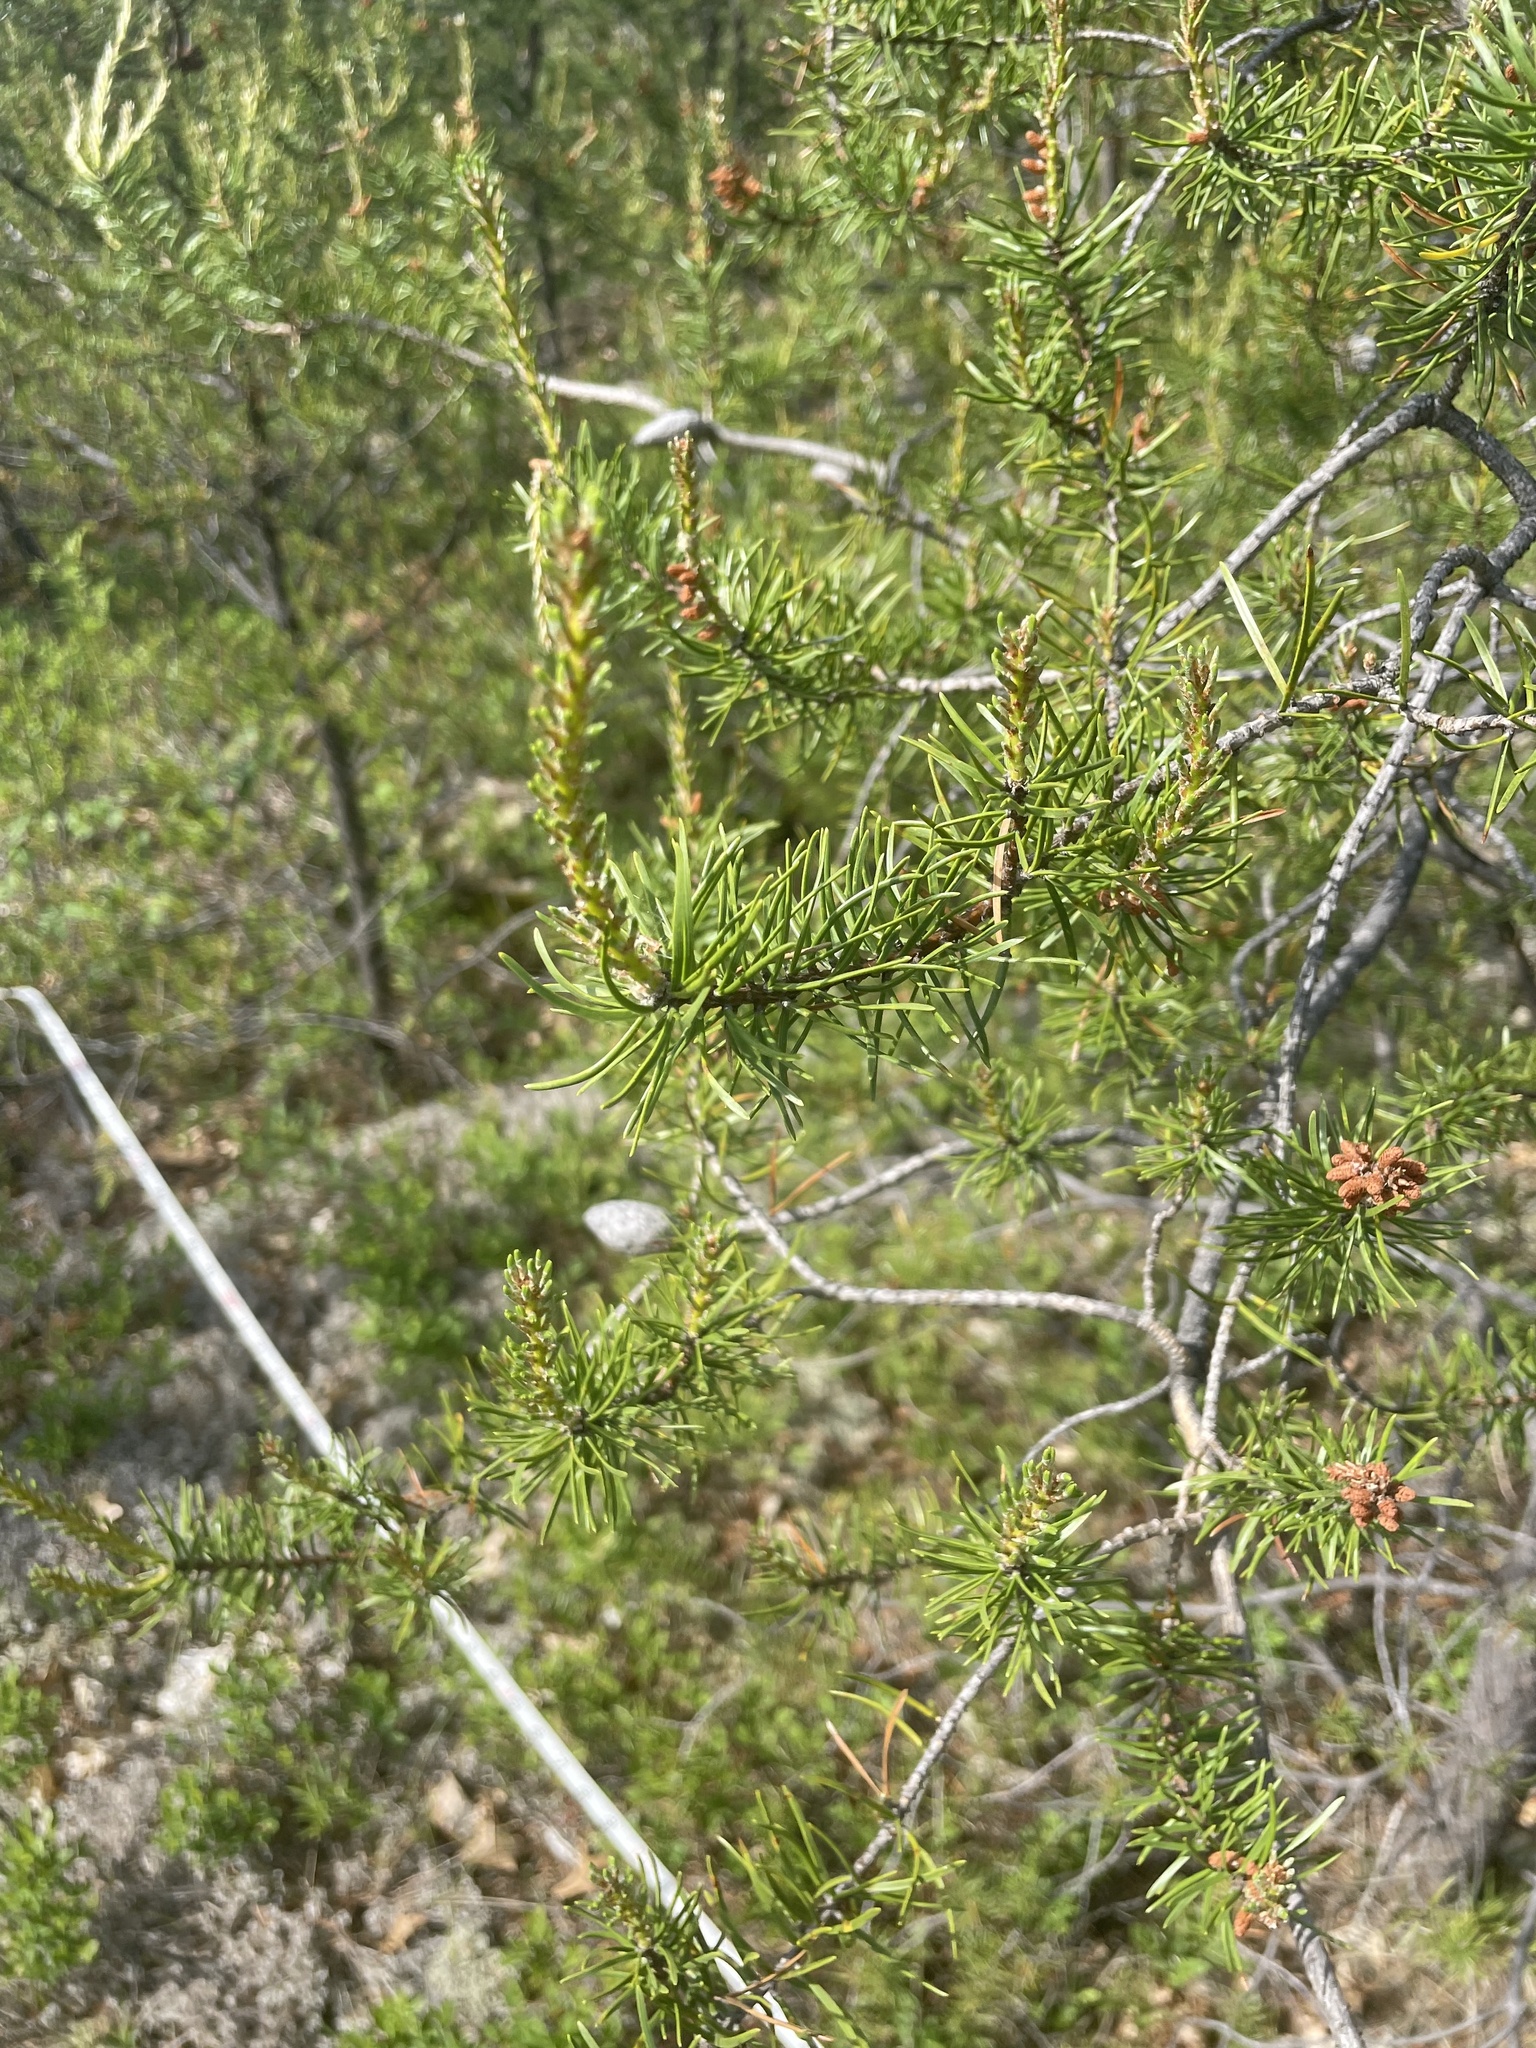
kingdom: Plantae
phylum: Tracheophyta
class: Pinopsida
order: Pinales
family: Pinaceae
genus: Pinus
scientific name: Pinus banksiana
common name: Jack pine
